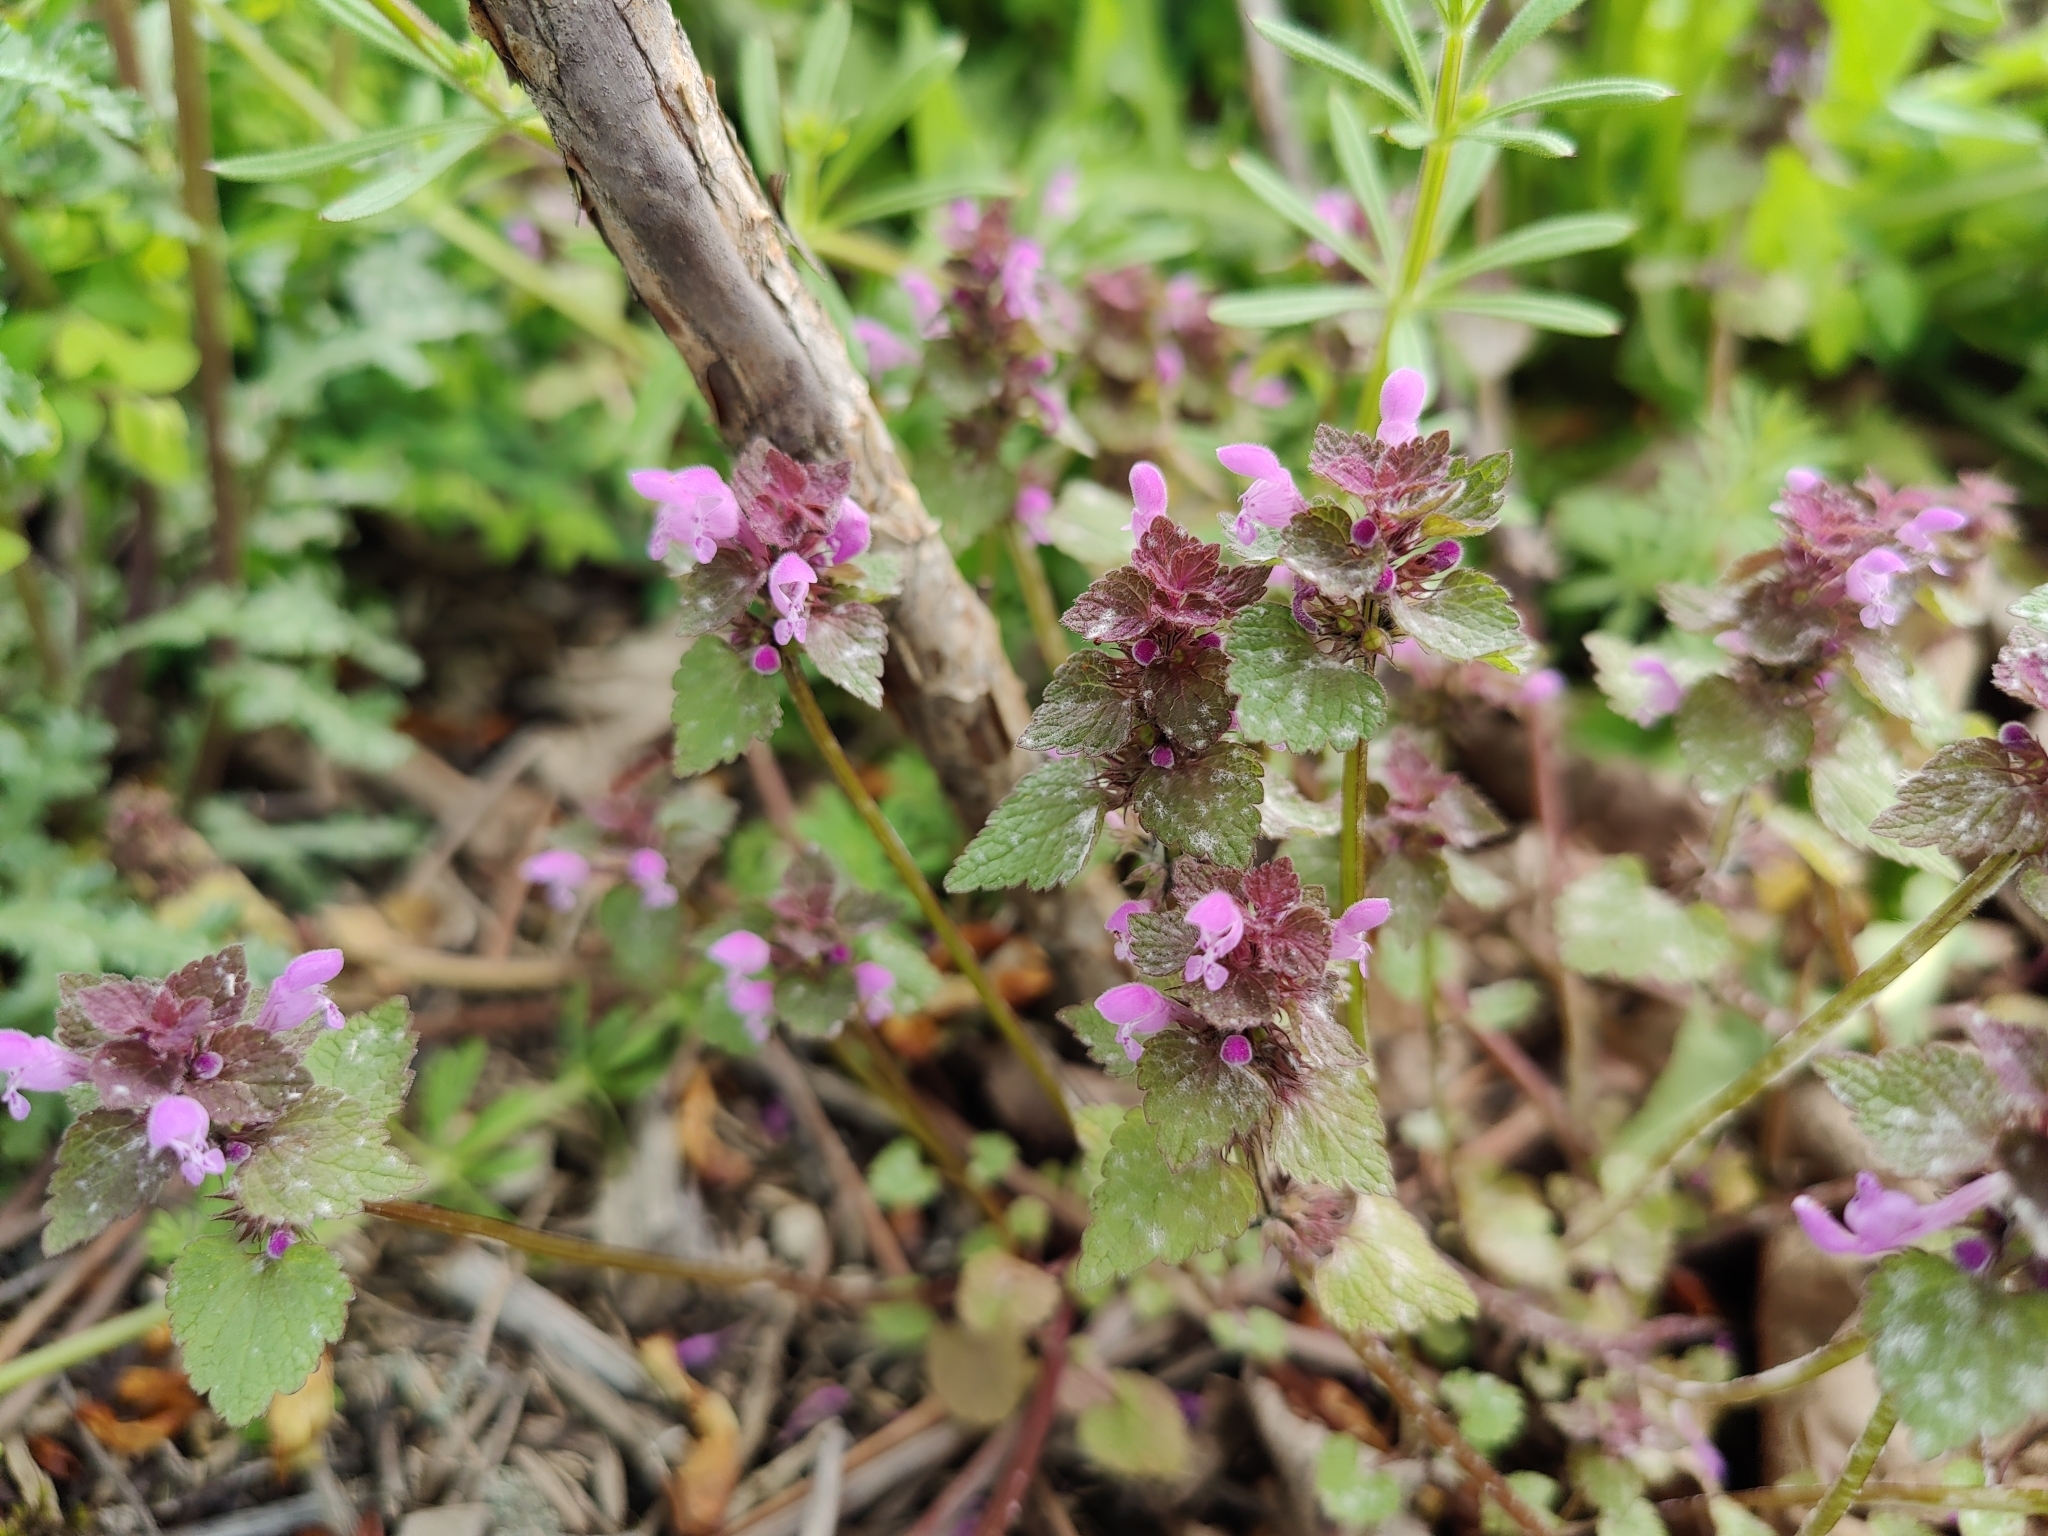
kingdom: Plantae
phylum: Tracheophyta
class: Magnoliopsida
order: Lamiales
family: Lamiaceae
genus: Lamium
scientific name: Lamium purpureum
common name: Red dead-nettle
